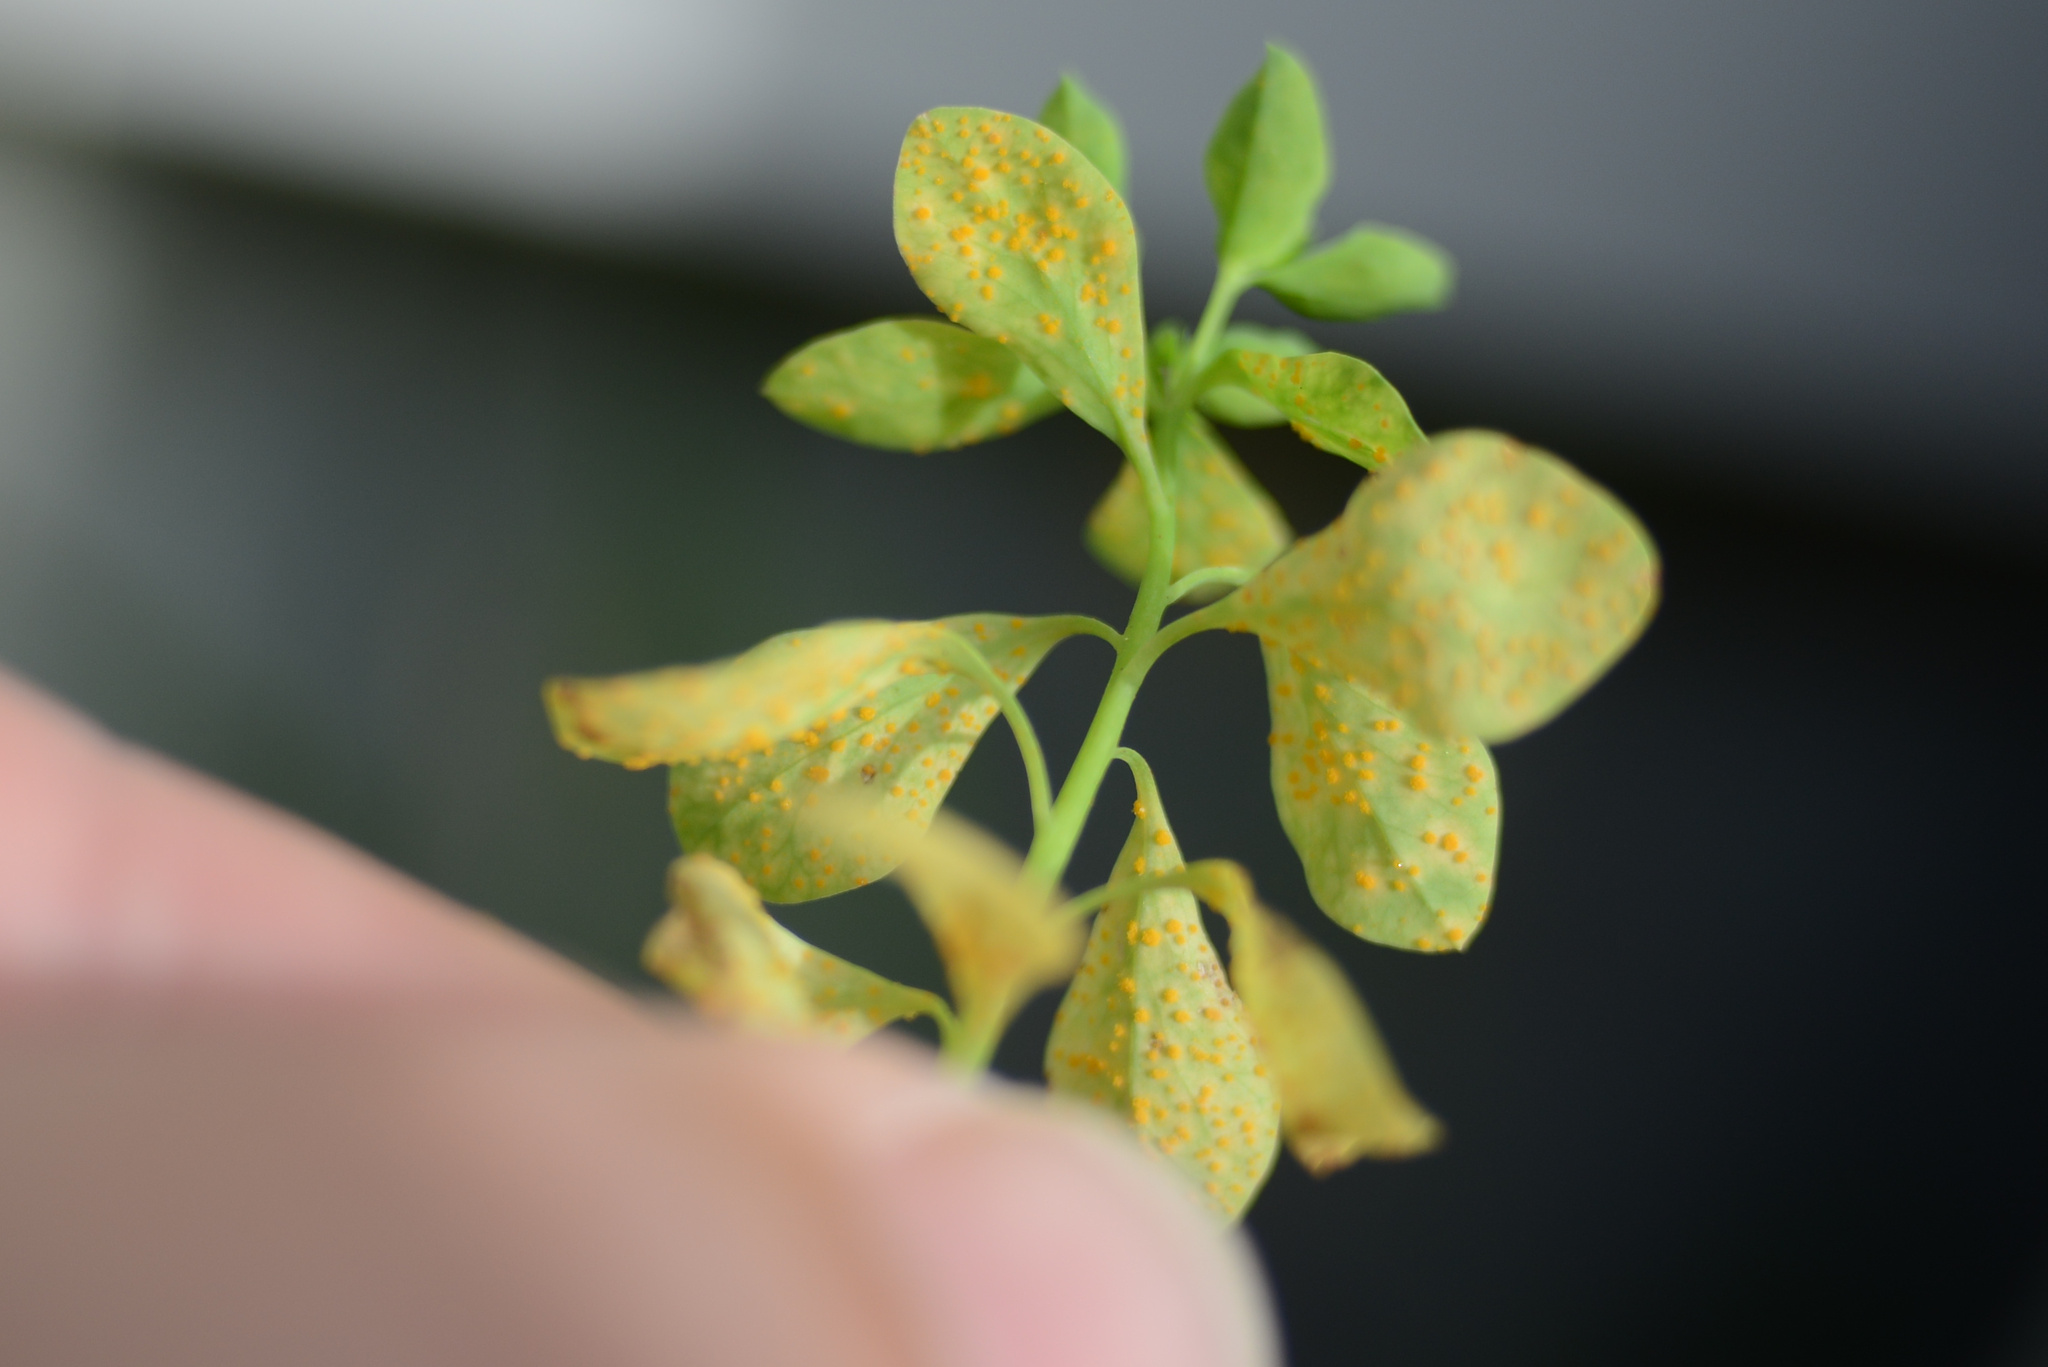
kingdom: Fungi
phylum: Basidiomycota
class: Pucciniomycetes
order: Pucciniales
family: Melampsoraceae
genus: Melampsora
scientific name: Melampsora euphorbiae
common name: Spurge rust
